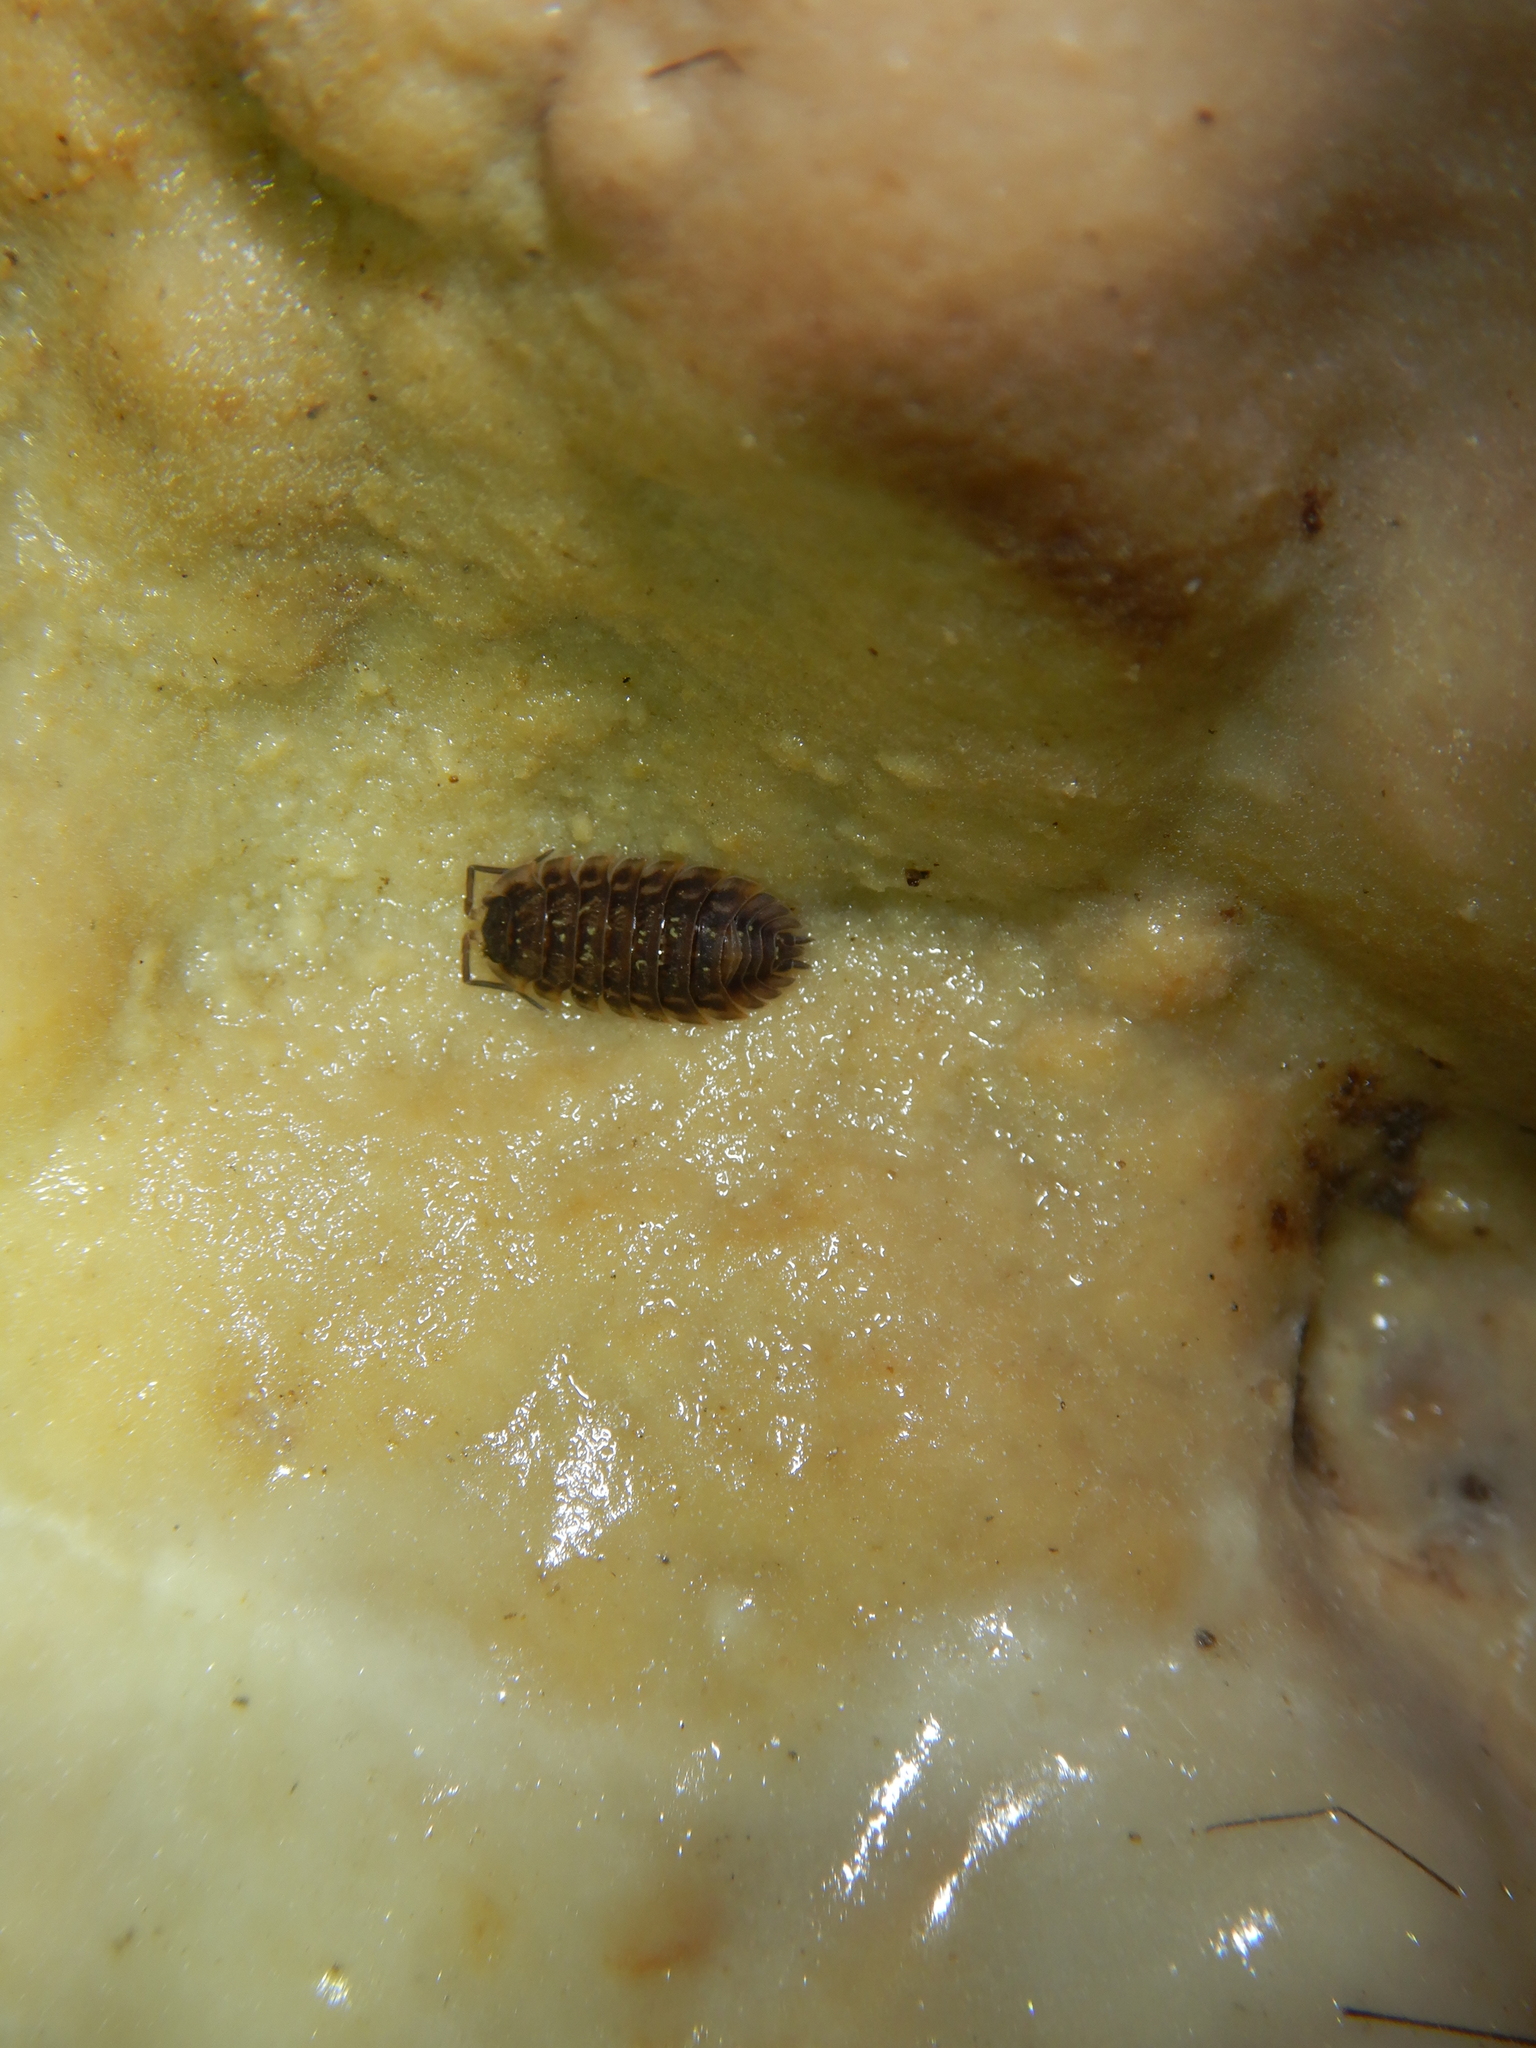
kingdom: Animalia
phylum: Arthropoda
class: Malacostraca
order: Isopoda
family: Oniscidae
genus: Oniscus
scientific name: Oniscus asellus
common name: Common shiny woodlouse
